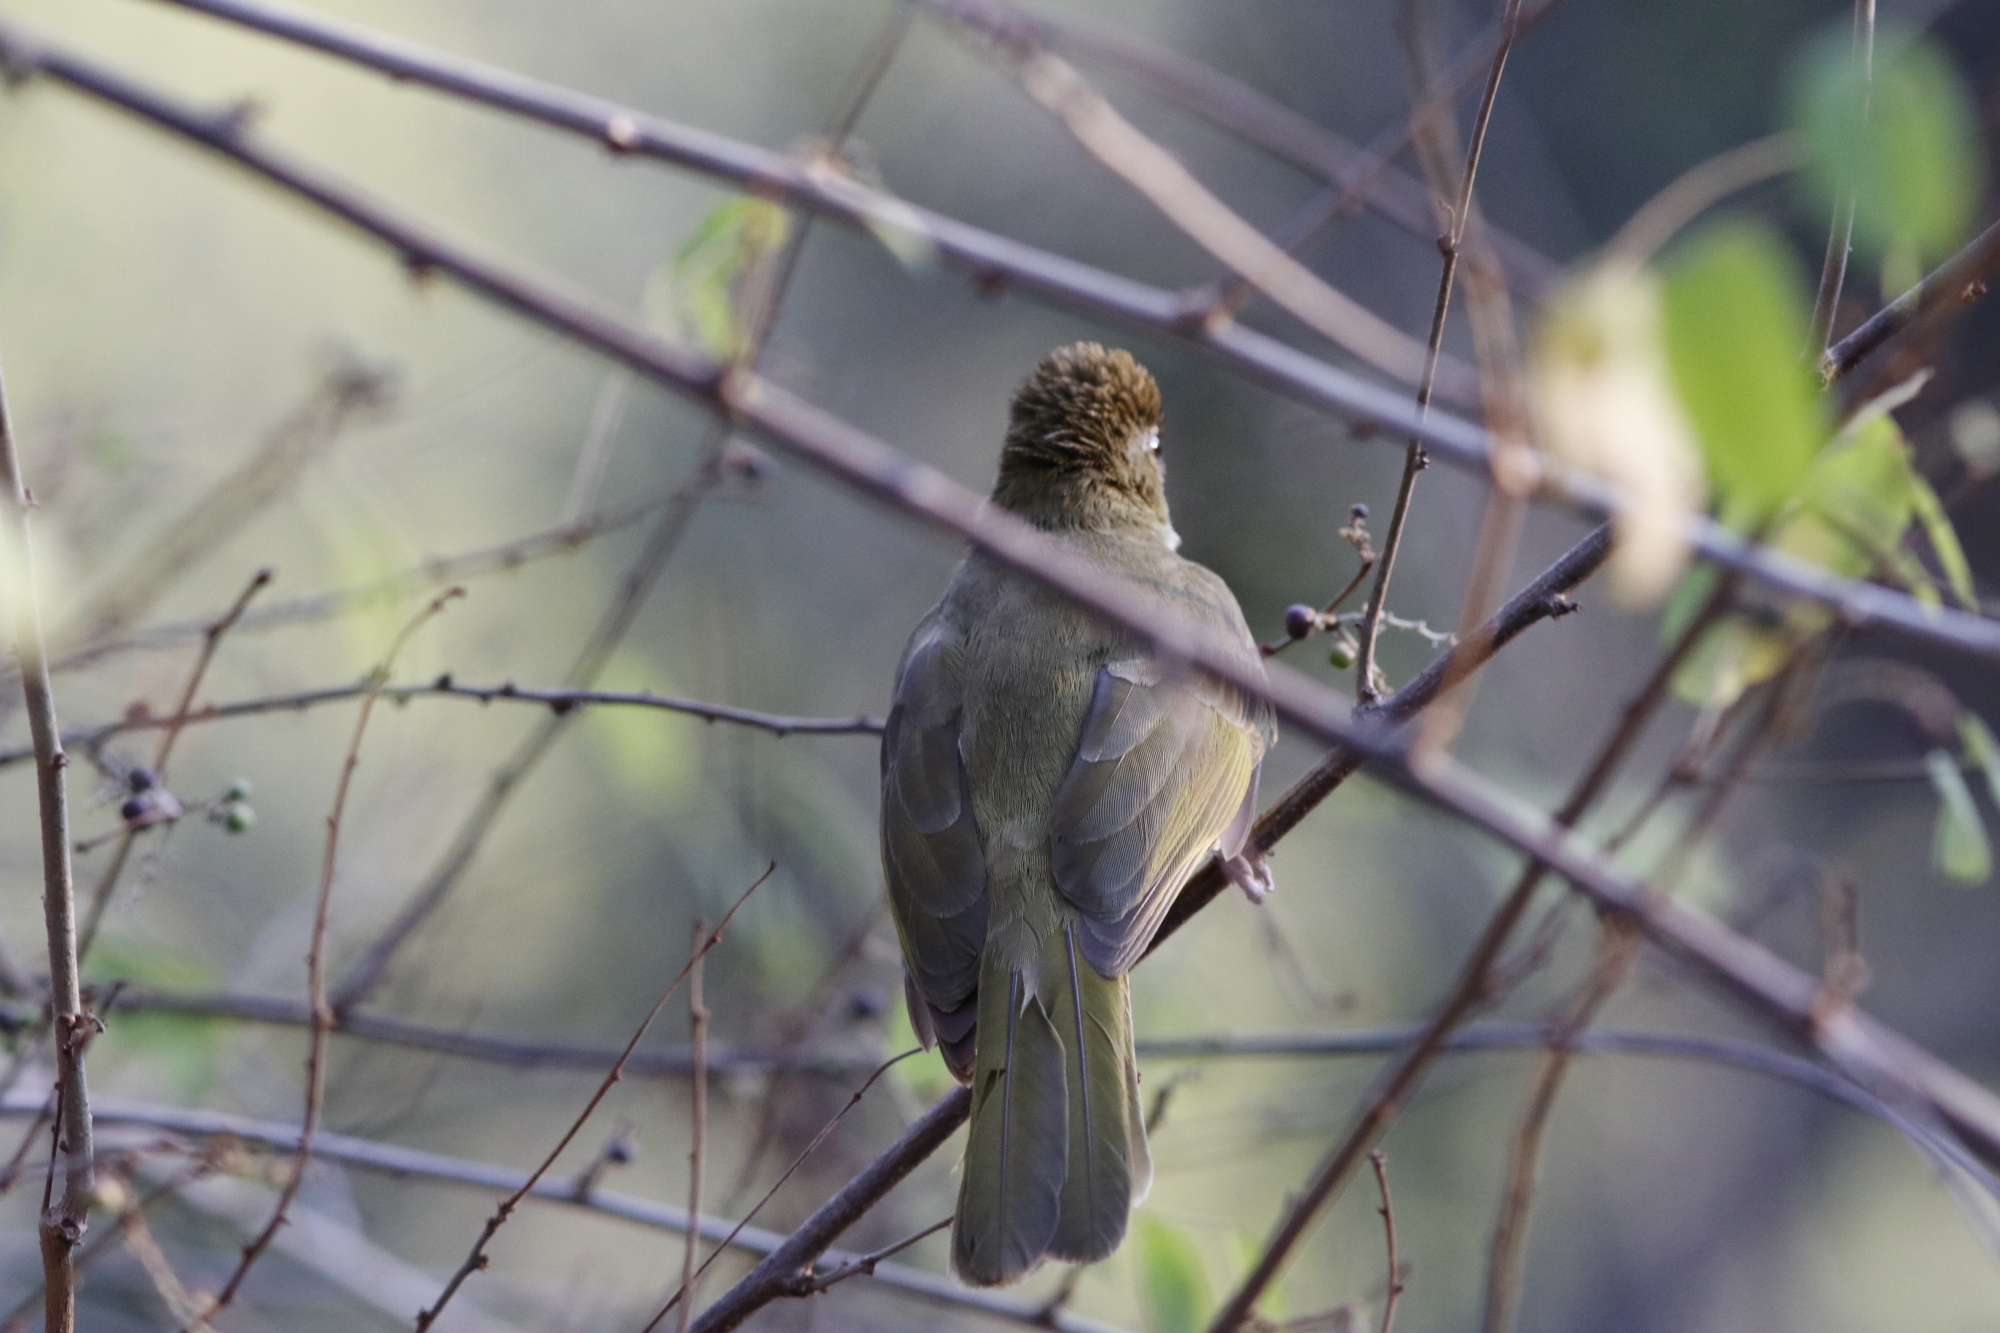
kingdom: Animalia
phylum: Chordata
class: Aves
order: Passeriformes
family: Pycnonotidae
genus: Chlorocichla
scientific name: Chlorocichla flaviventris
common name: Yellow-bellied greenbul
